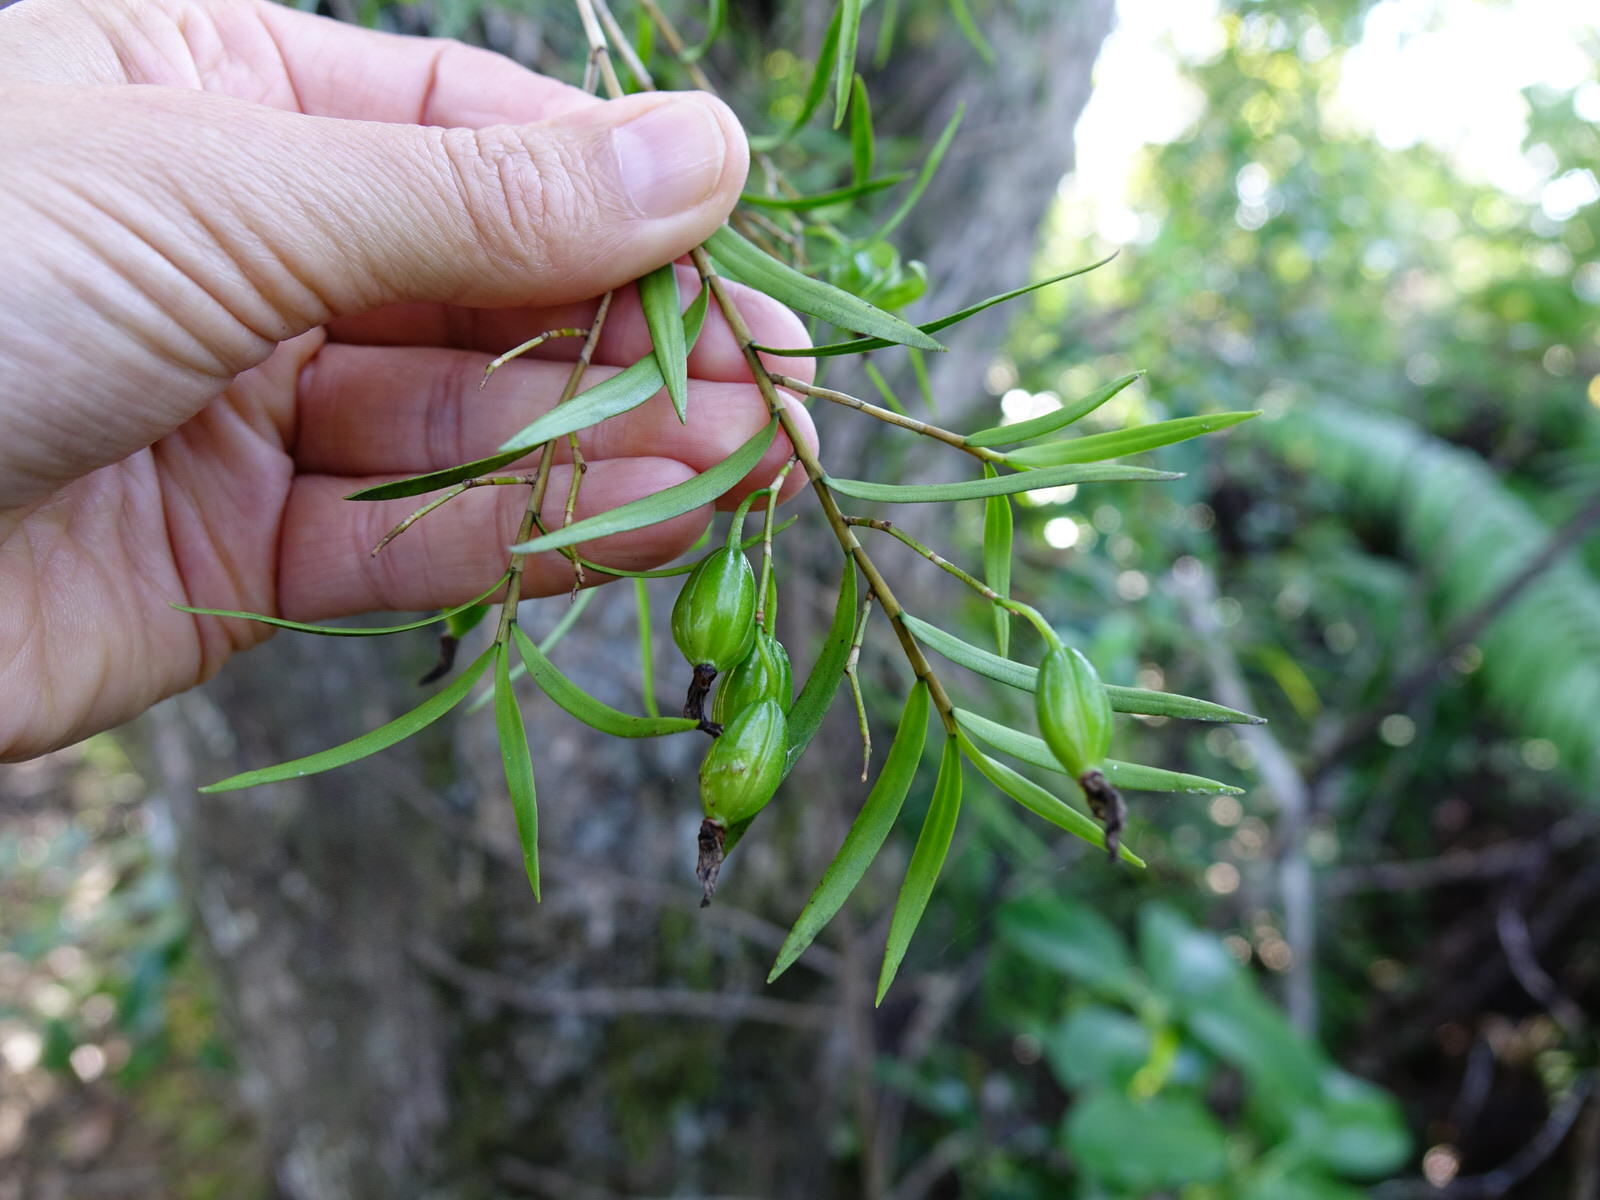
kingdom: Plantae
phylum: Tracheophyta
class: Liliopsida
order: Asparagales
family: Orchidaceae
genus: Dendrobium
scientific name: Dendrobium cunninghamii
